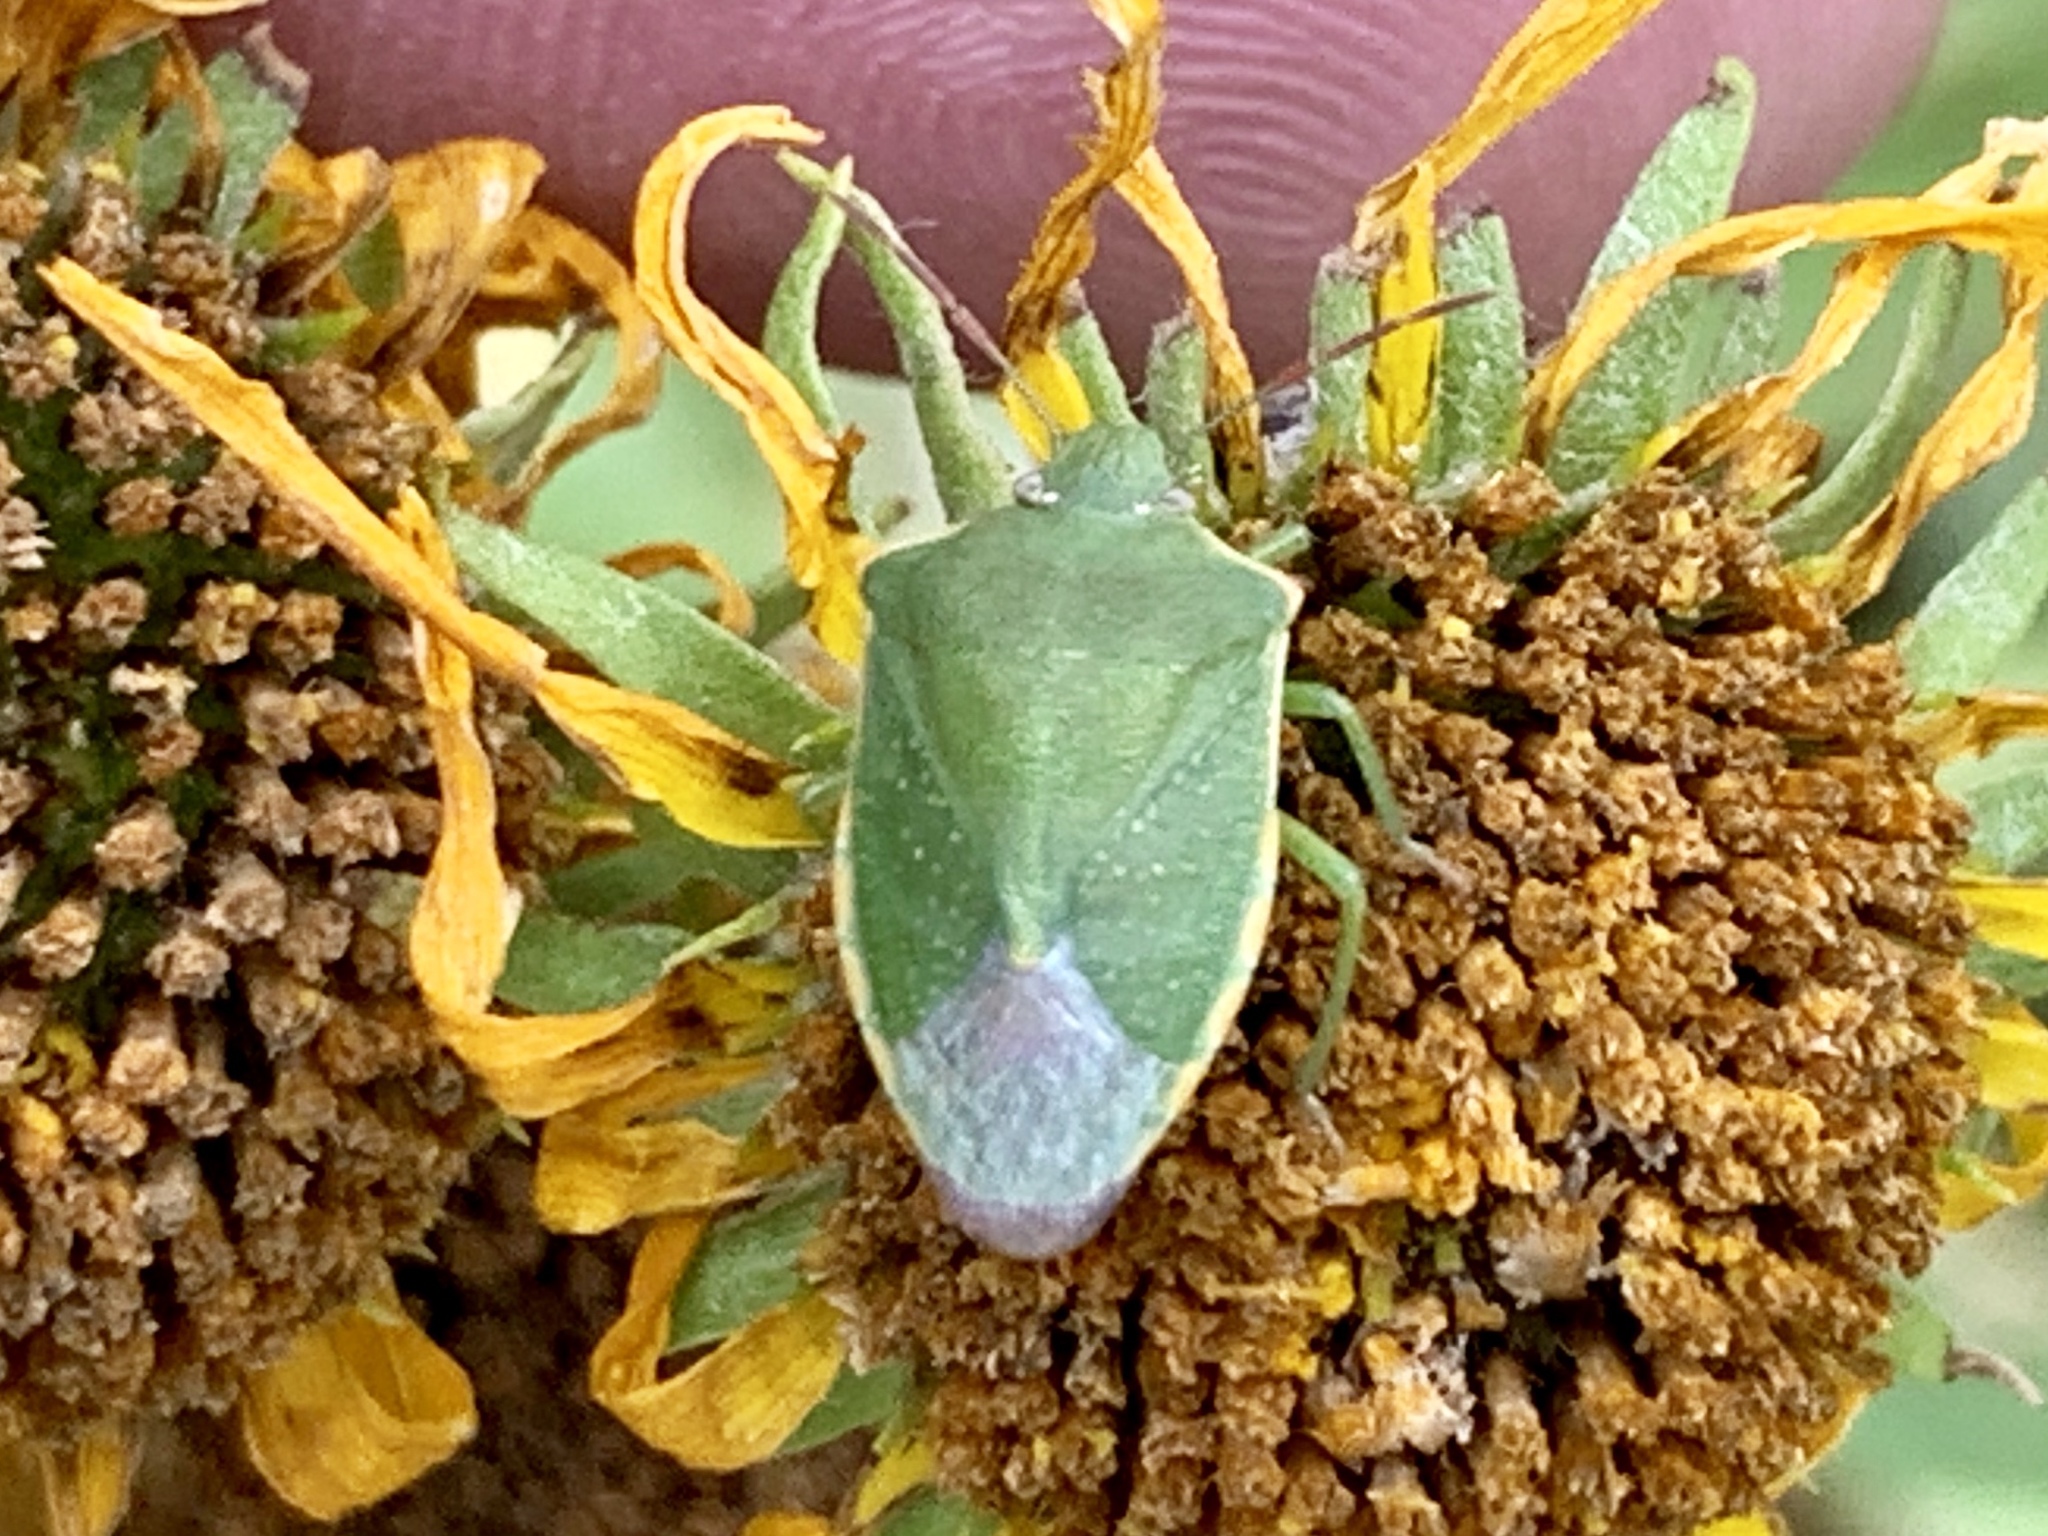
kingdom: Animalia
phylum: Arthropoda
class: Insecta
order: Hemiptera
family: Pentatomidae
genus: Thyanta
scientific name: Thyanta accerra
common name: Stink bug
